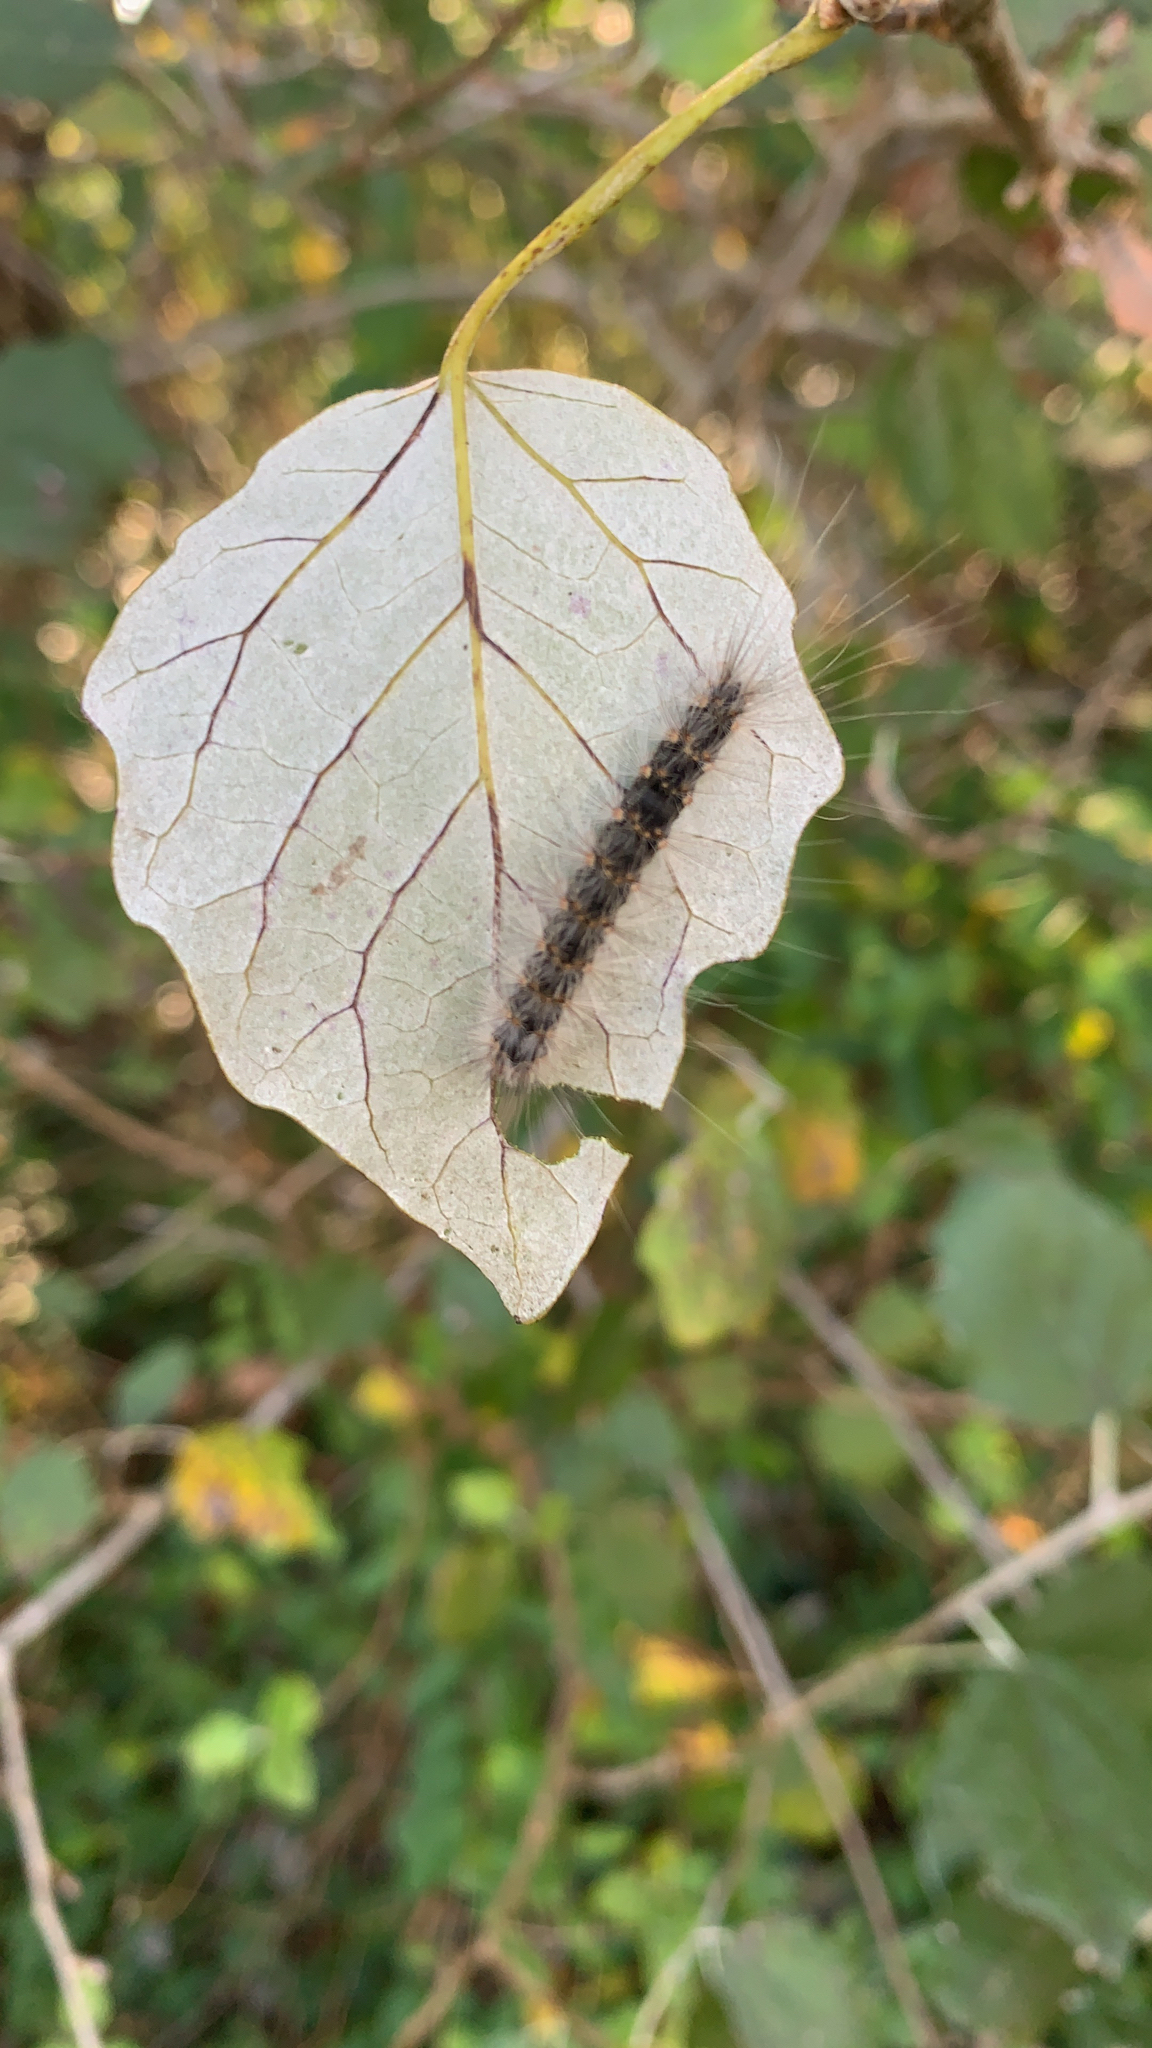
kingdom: Animalia
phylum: Arthropoda
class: Insecta
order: Lepidoptera
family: Erebidae
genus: Hyphantria
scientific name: Hyphantria cunea
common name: American white moth
